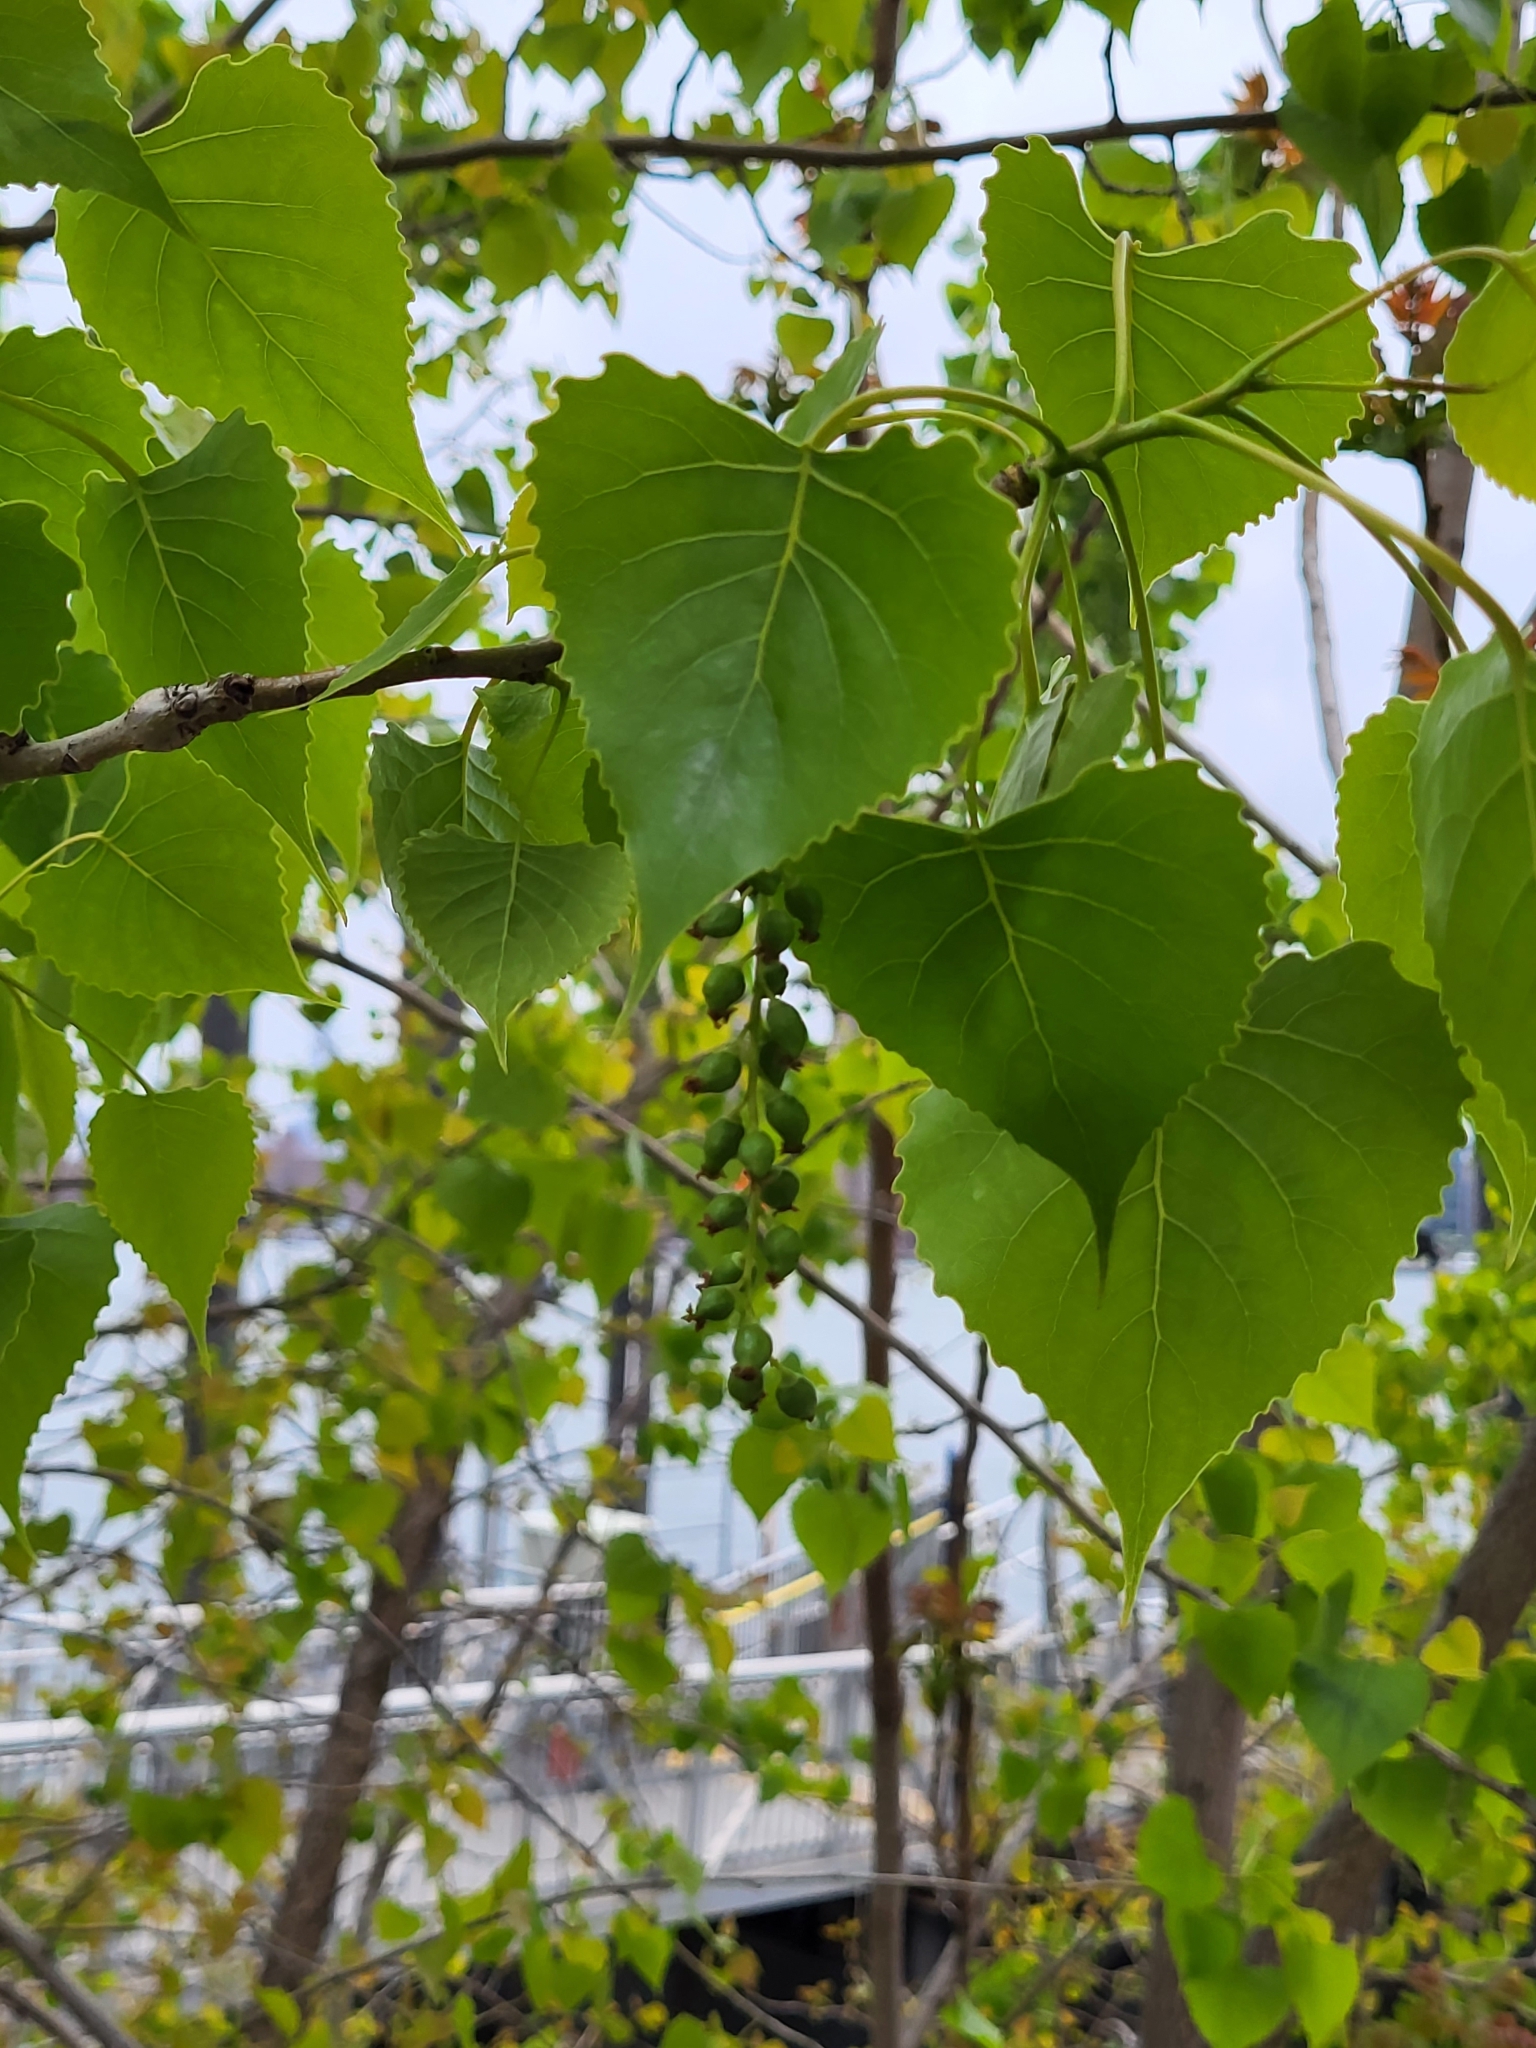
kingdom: Plantae
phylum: Tracheophyta
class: Magnoliopsida
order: Malpighiales
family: Salicaceae
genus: Populus
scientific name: Populus deltoides
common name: Eastern cottonwood
